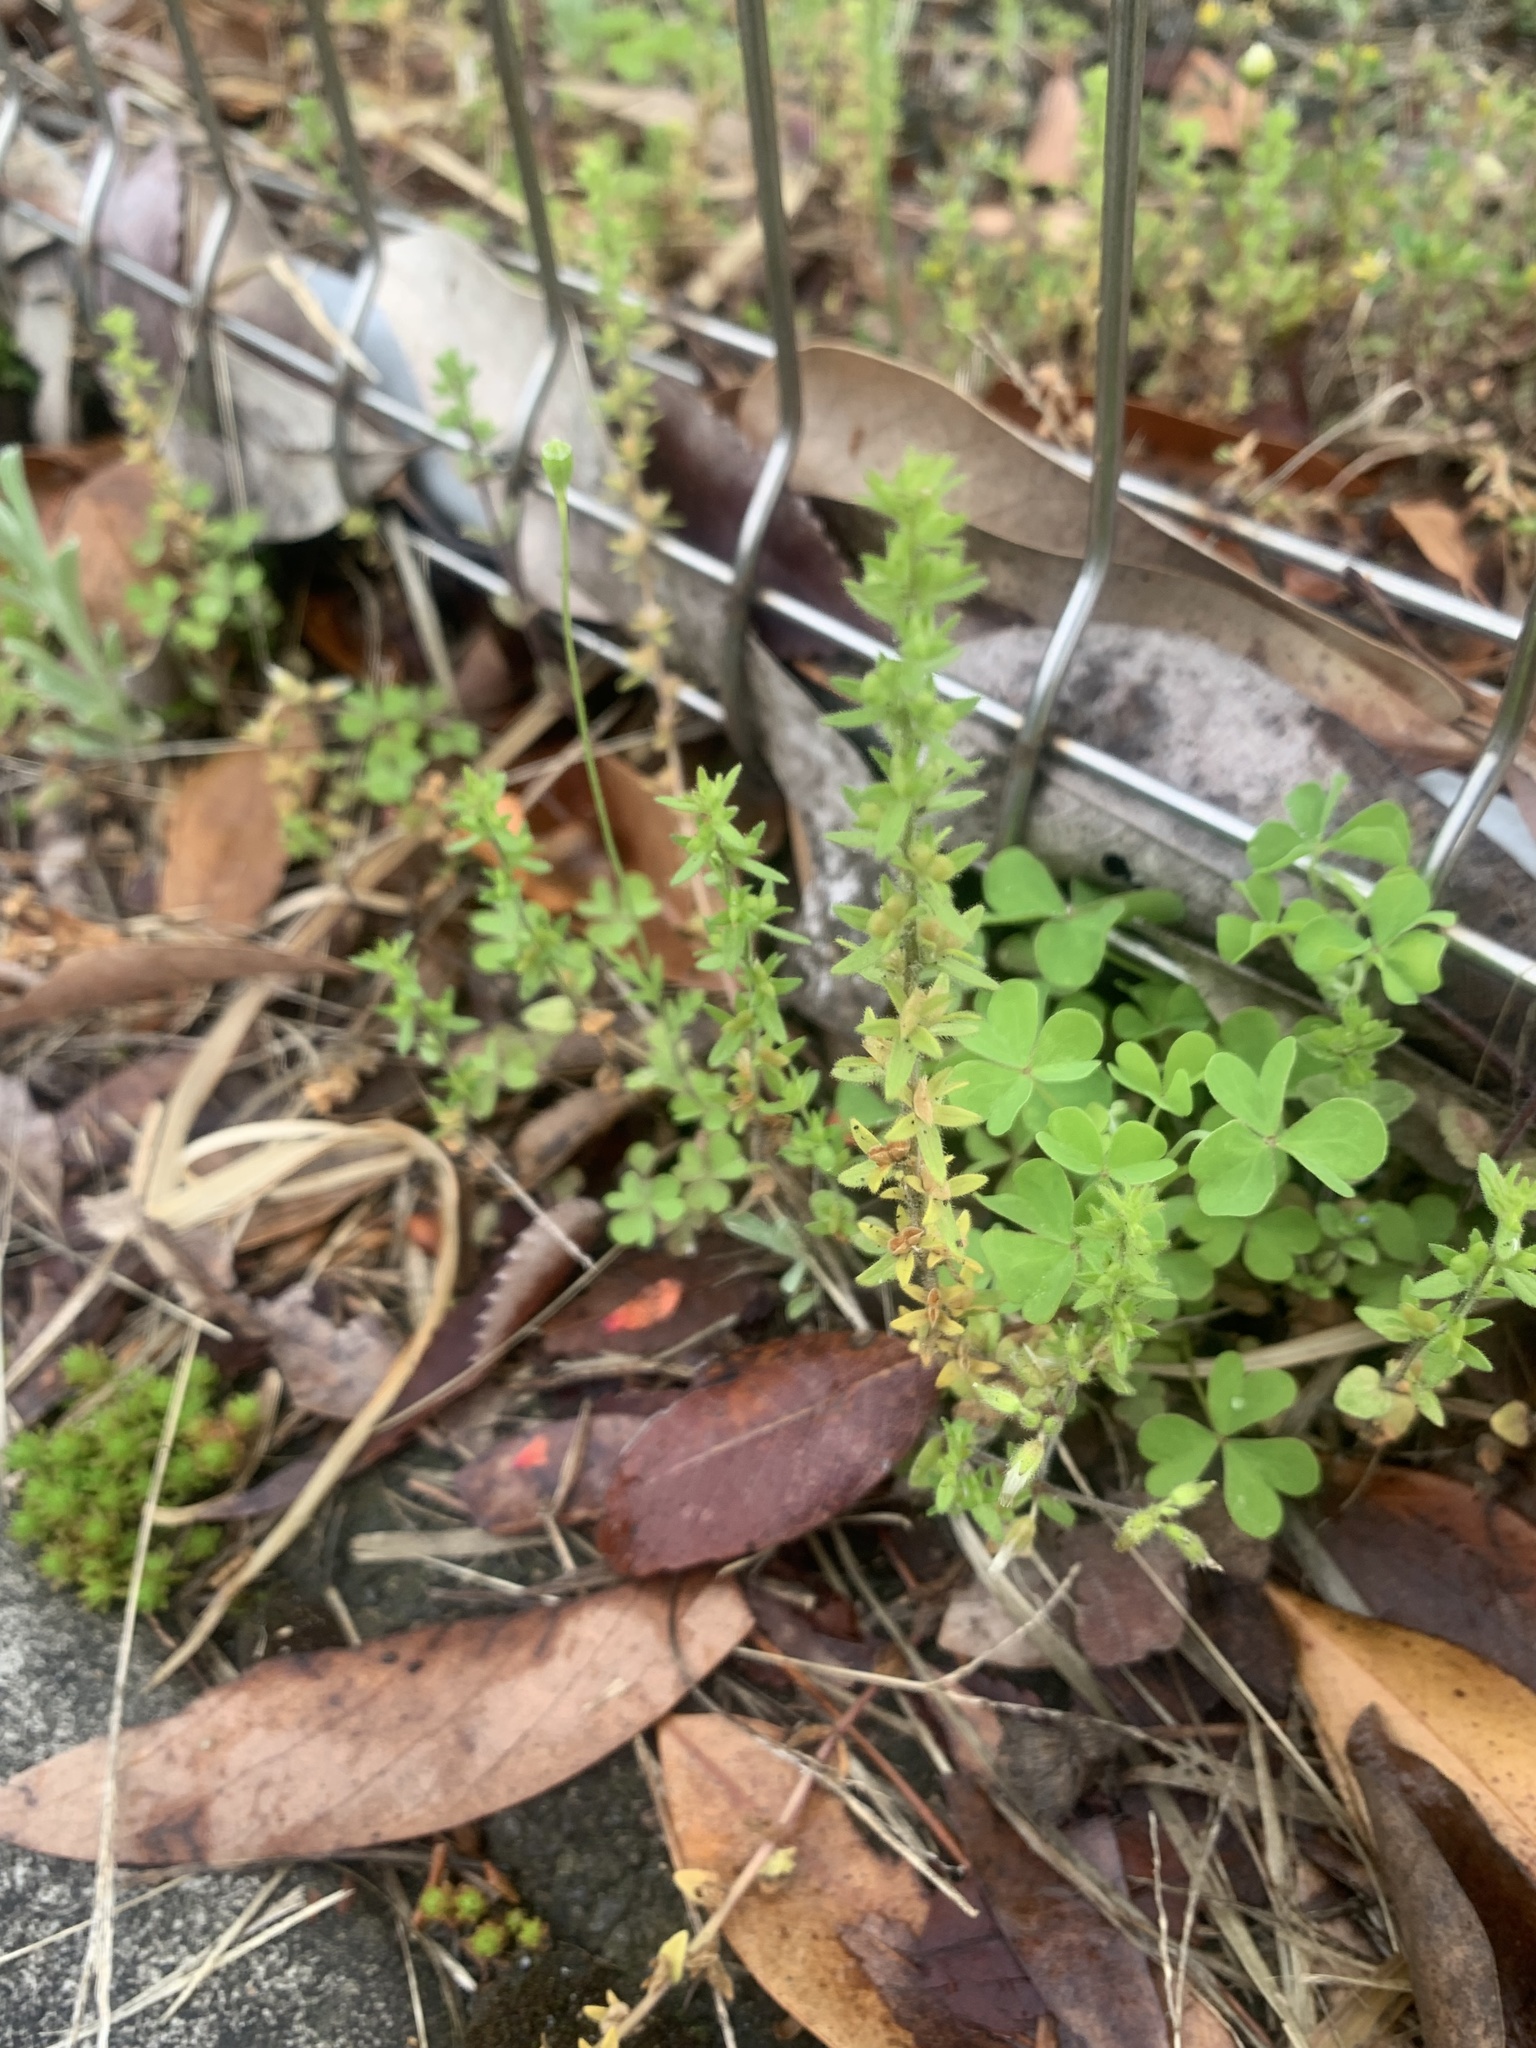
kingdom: Plantae
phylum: Tracheophyta
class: Magnoliopsida
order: Lamiales
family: Plantaginaceae
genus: Veronica
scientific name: Veronica arvensis
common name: Corn speedwell
